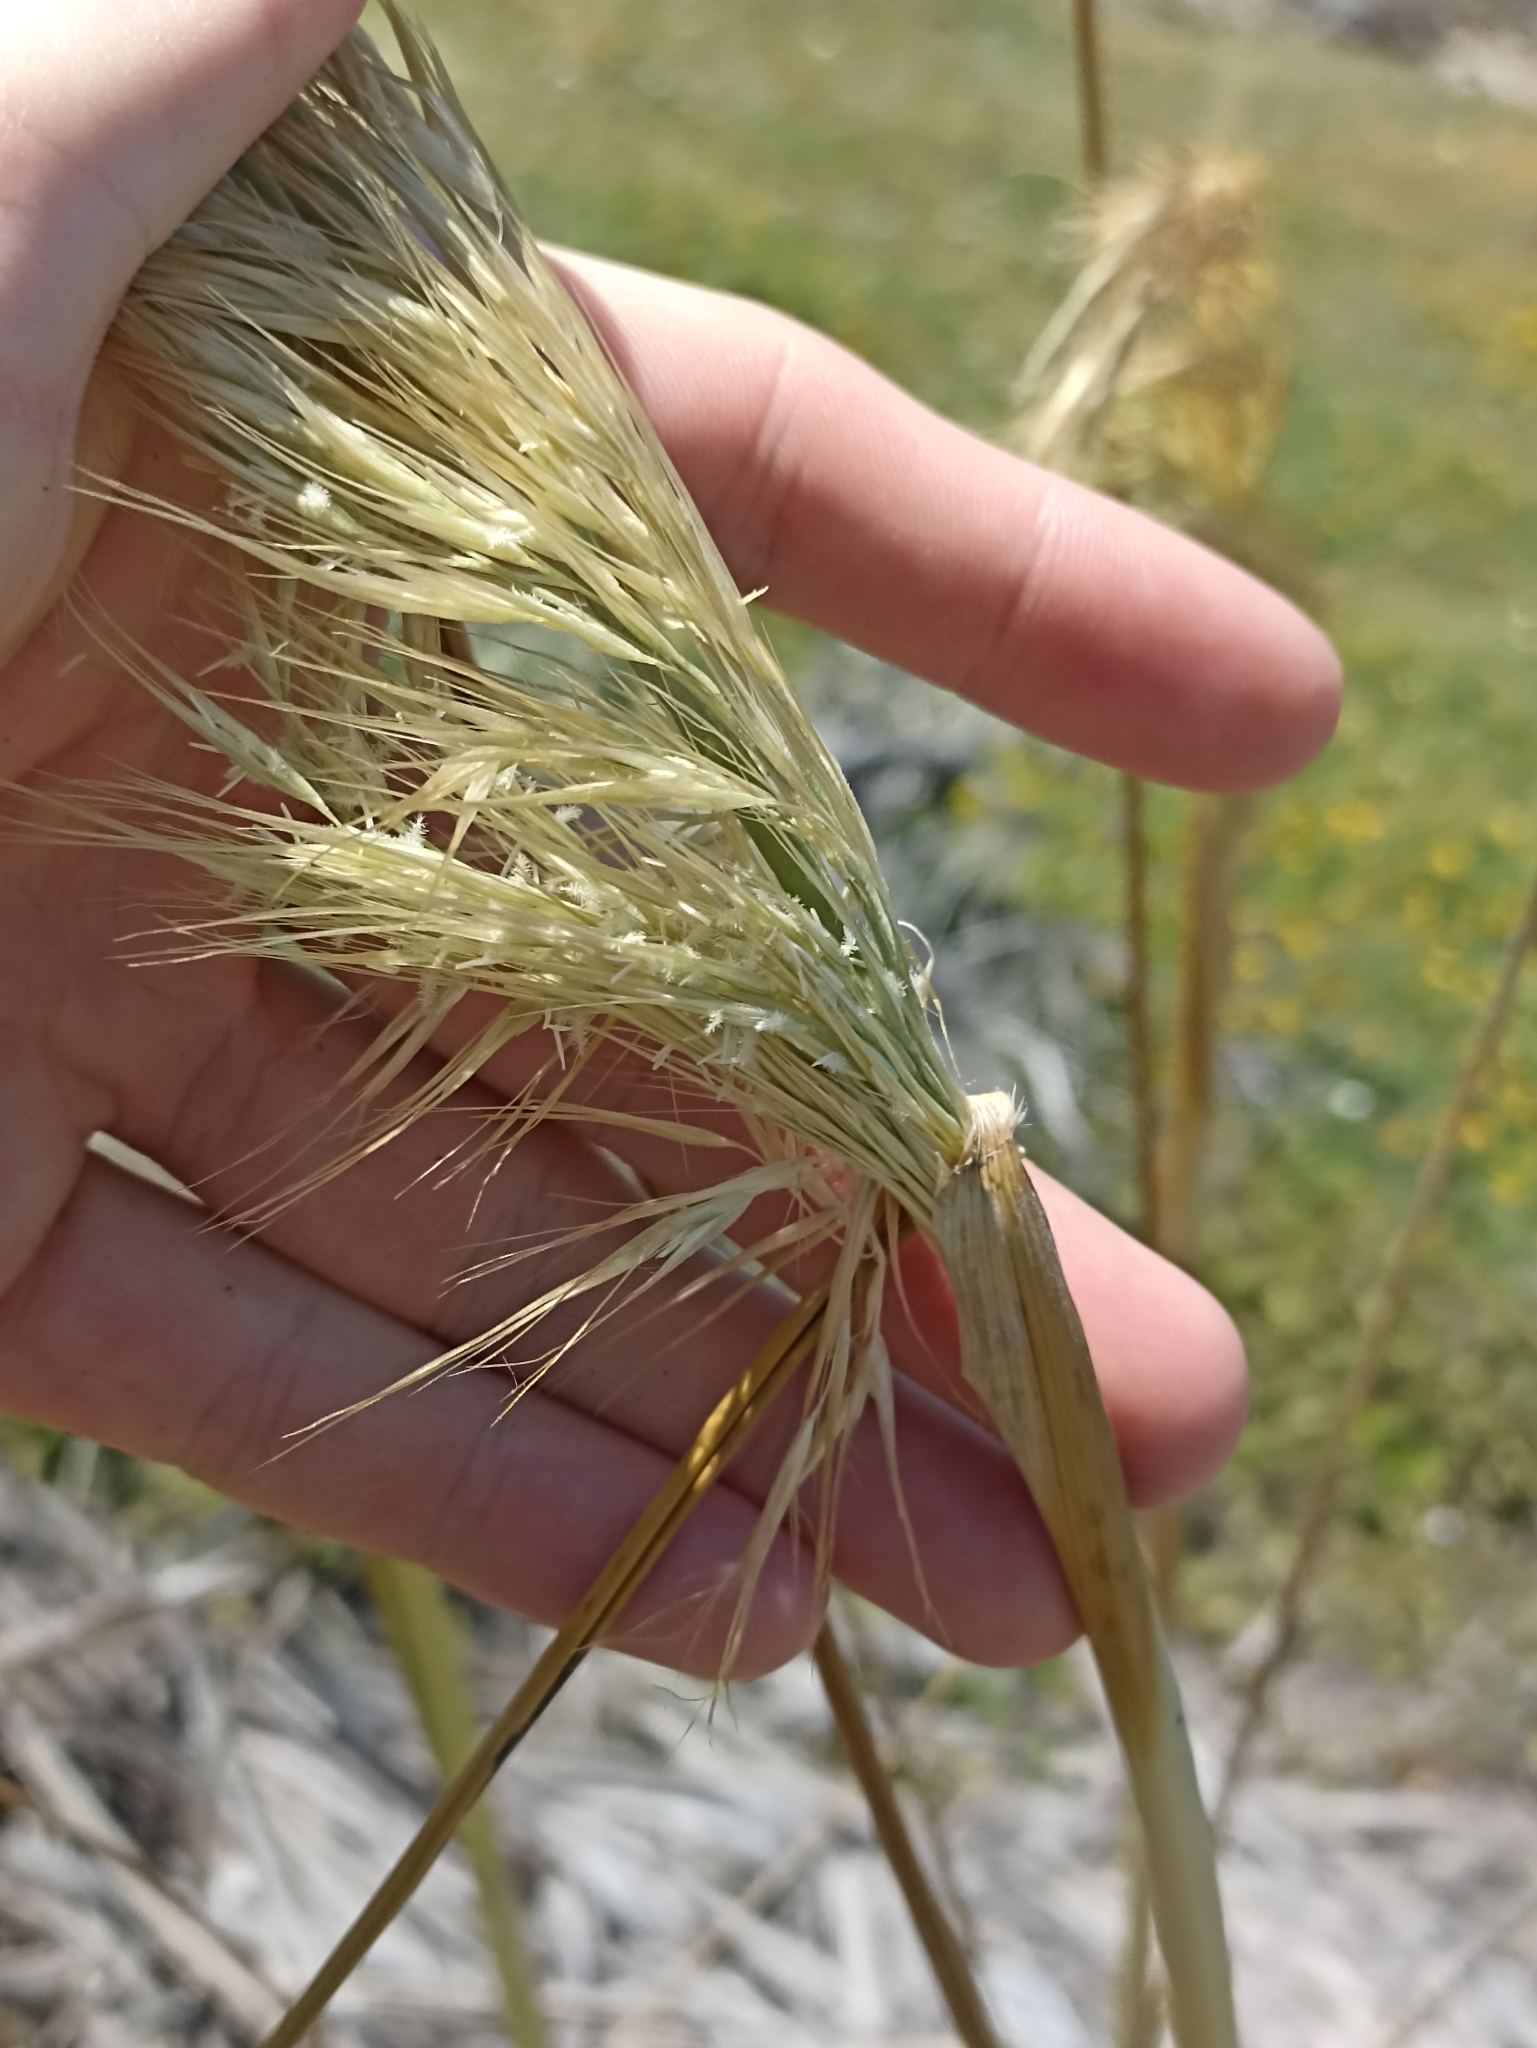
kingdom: Plantae
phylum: Tracheophyta
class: Liliopsida
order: Poales
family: Poaceae
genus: Austroderia
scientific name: Austroderia splendens
